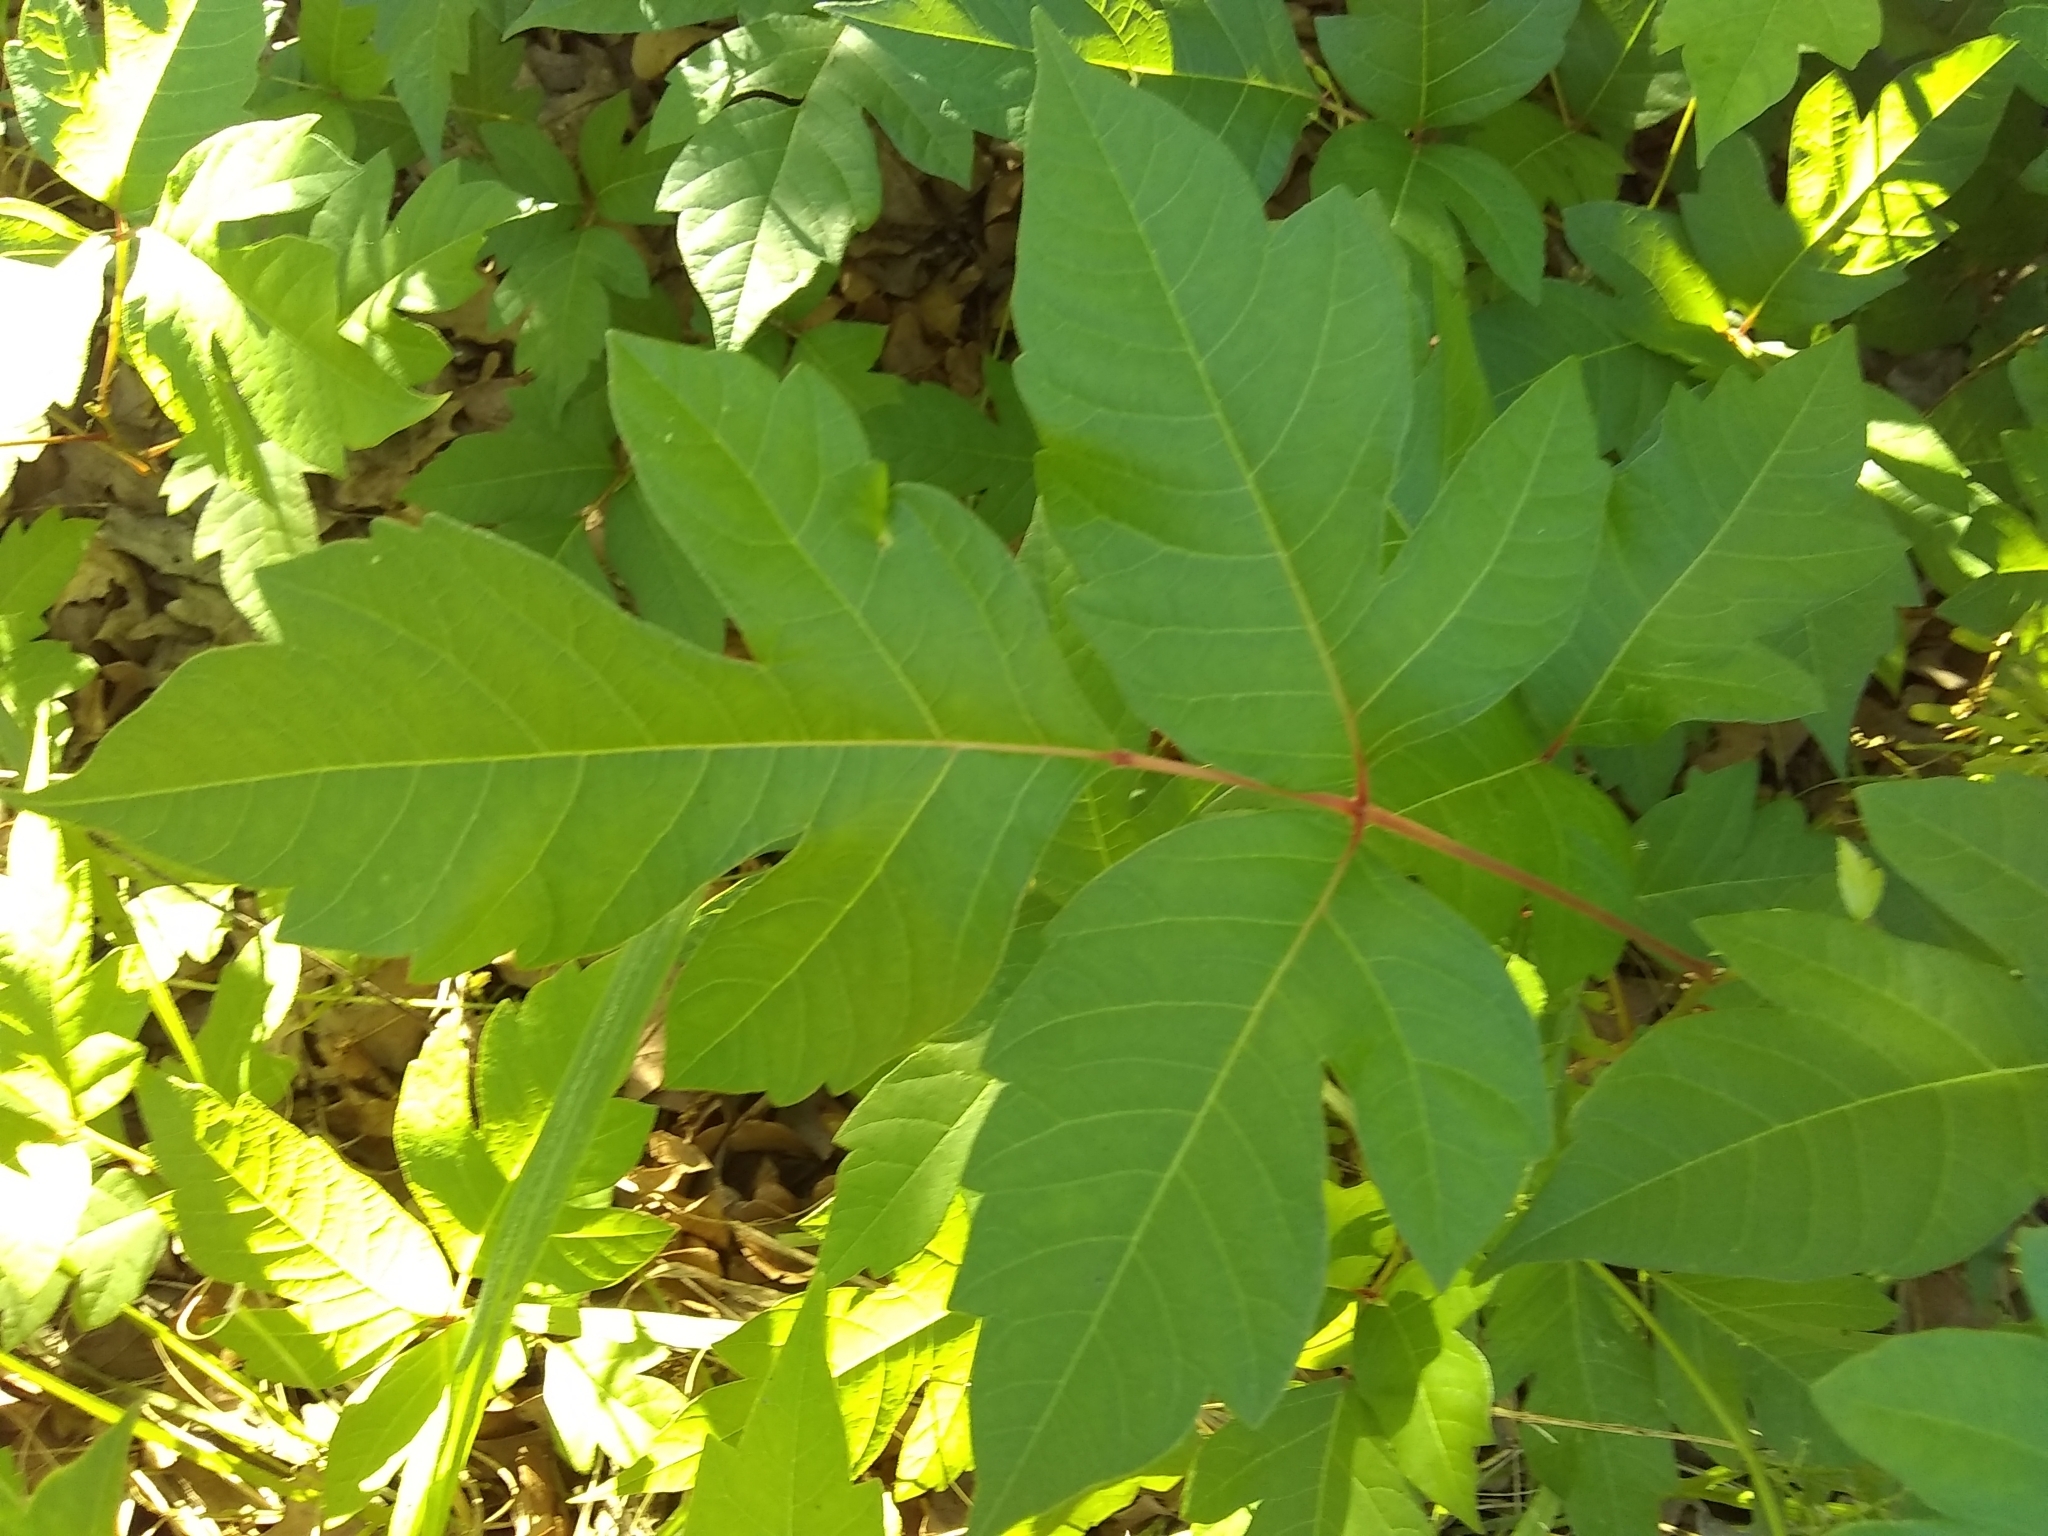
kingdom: Plantae
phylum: Tracheophyta
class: Magnoliopsida
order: Sapindales
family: Anacardiaceae
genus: Toxicodendron
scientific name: Toxicodendron radicans
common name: Poison ivy
